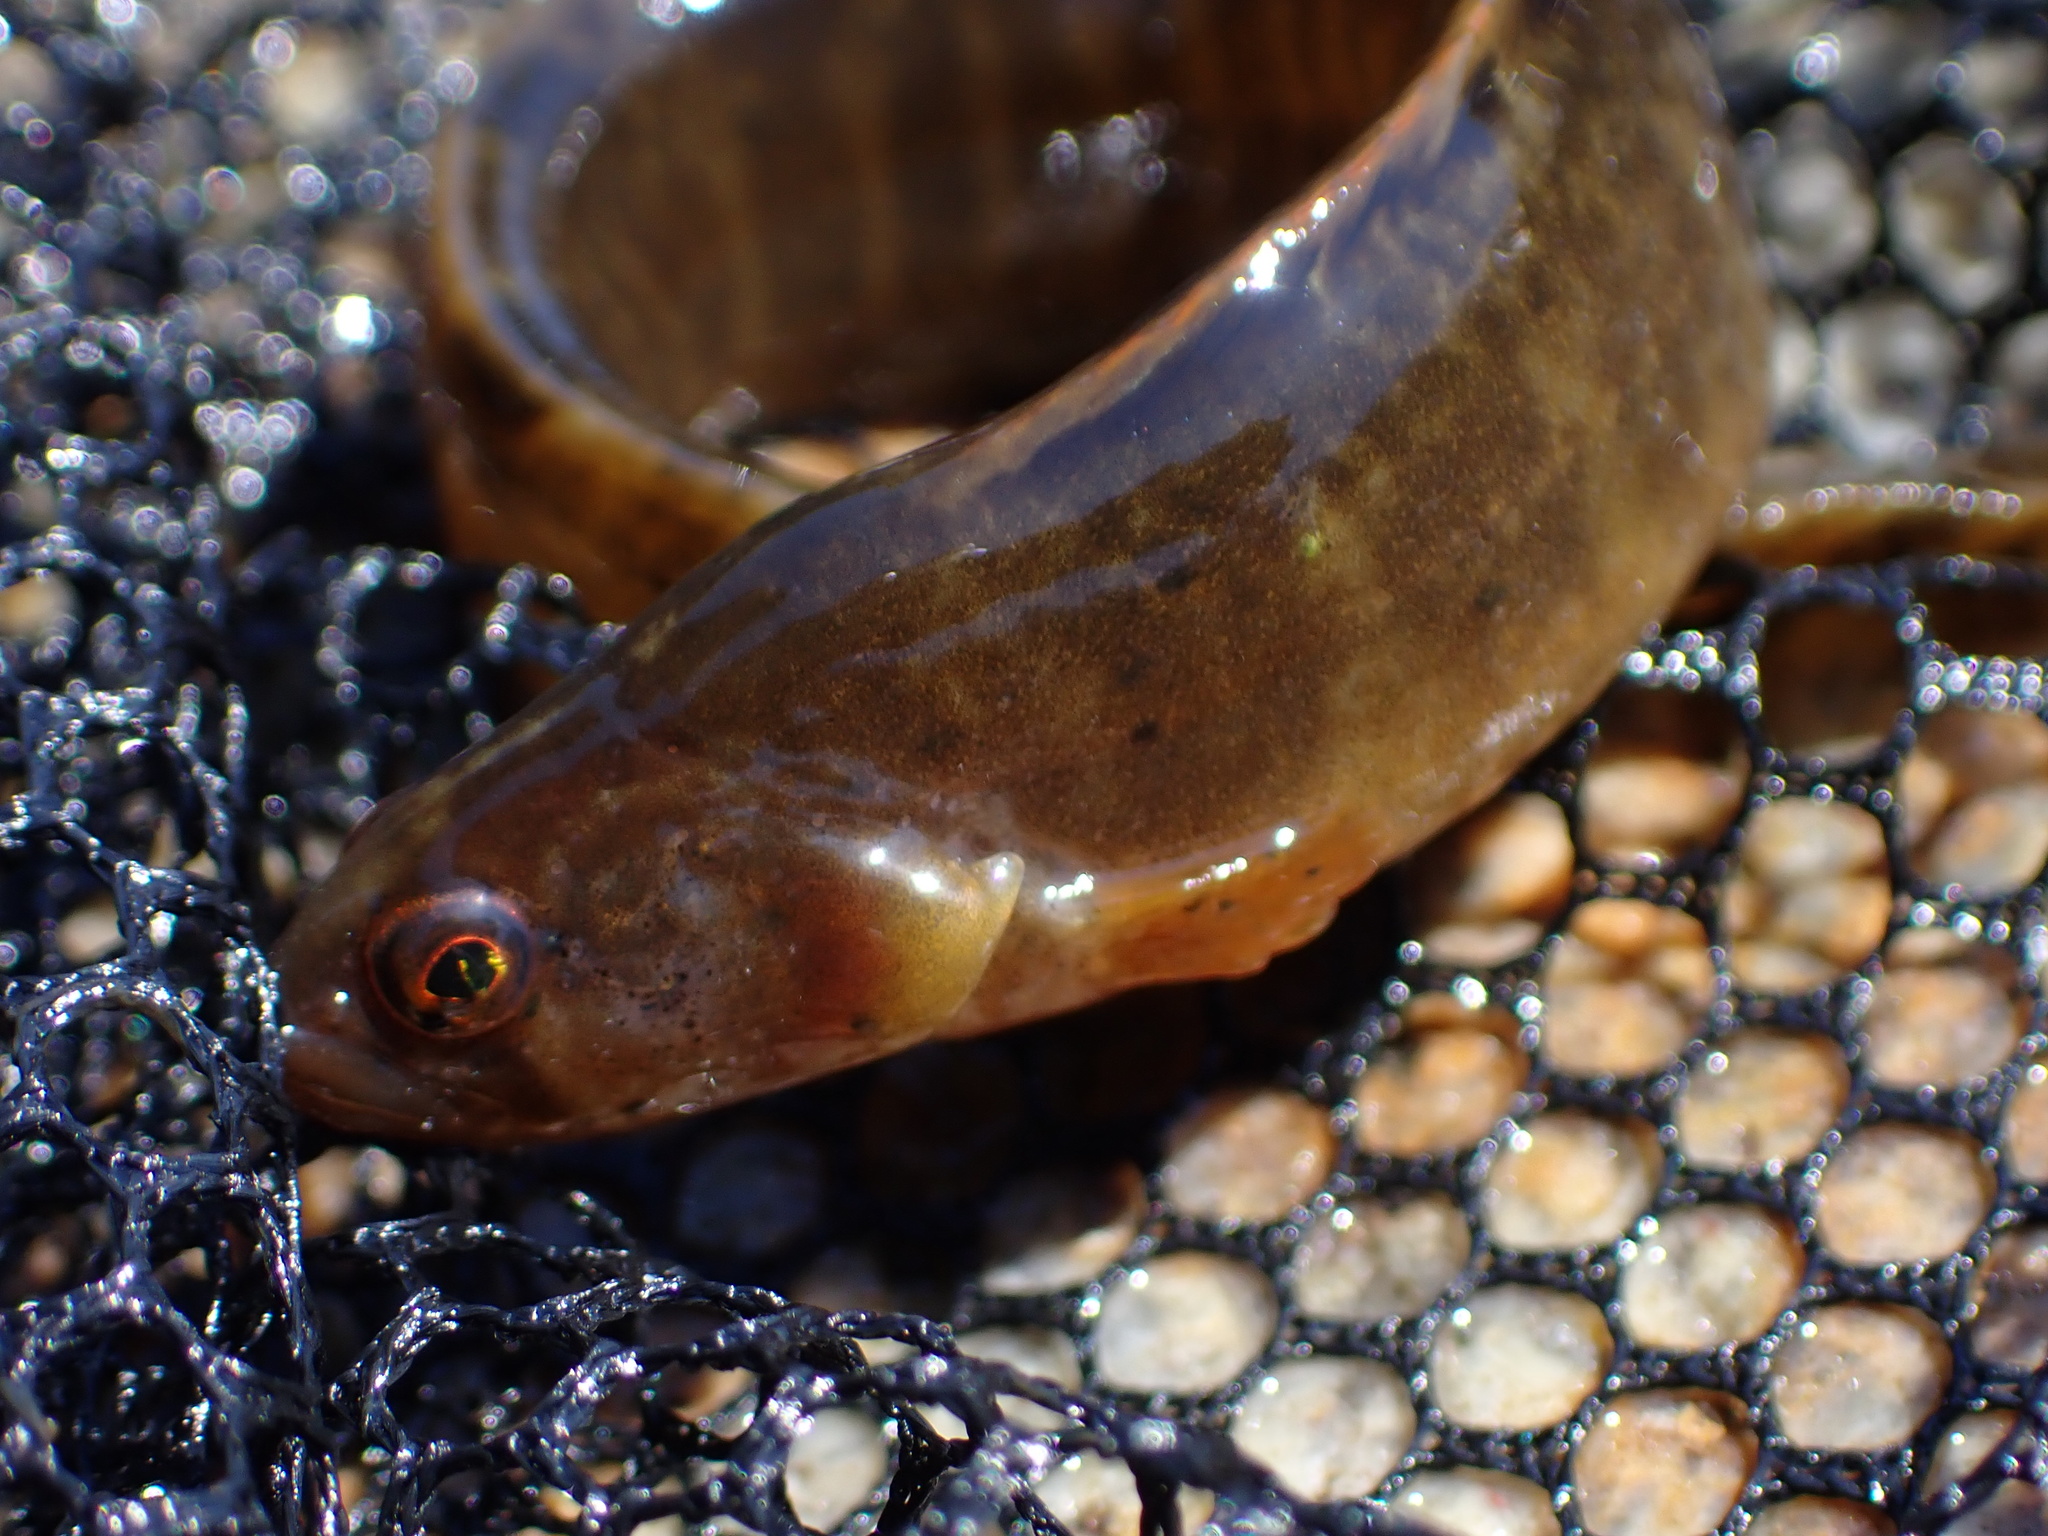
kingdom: Animalia
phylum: Chordata
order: Perciformes
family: Pholidae
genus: Pholis
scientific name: Pholis gunnellus
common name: Butterfish
